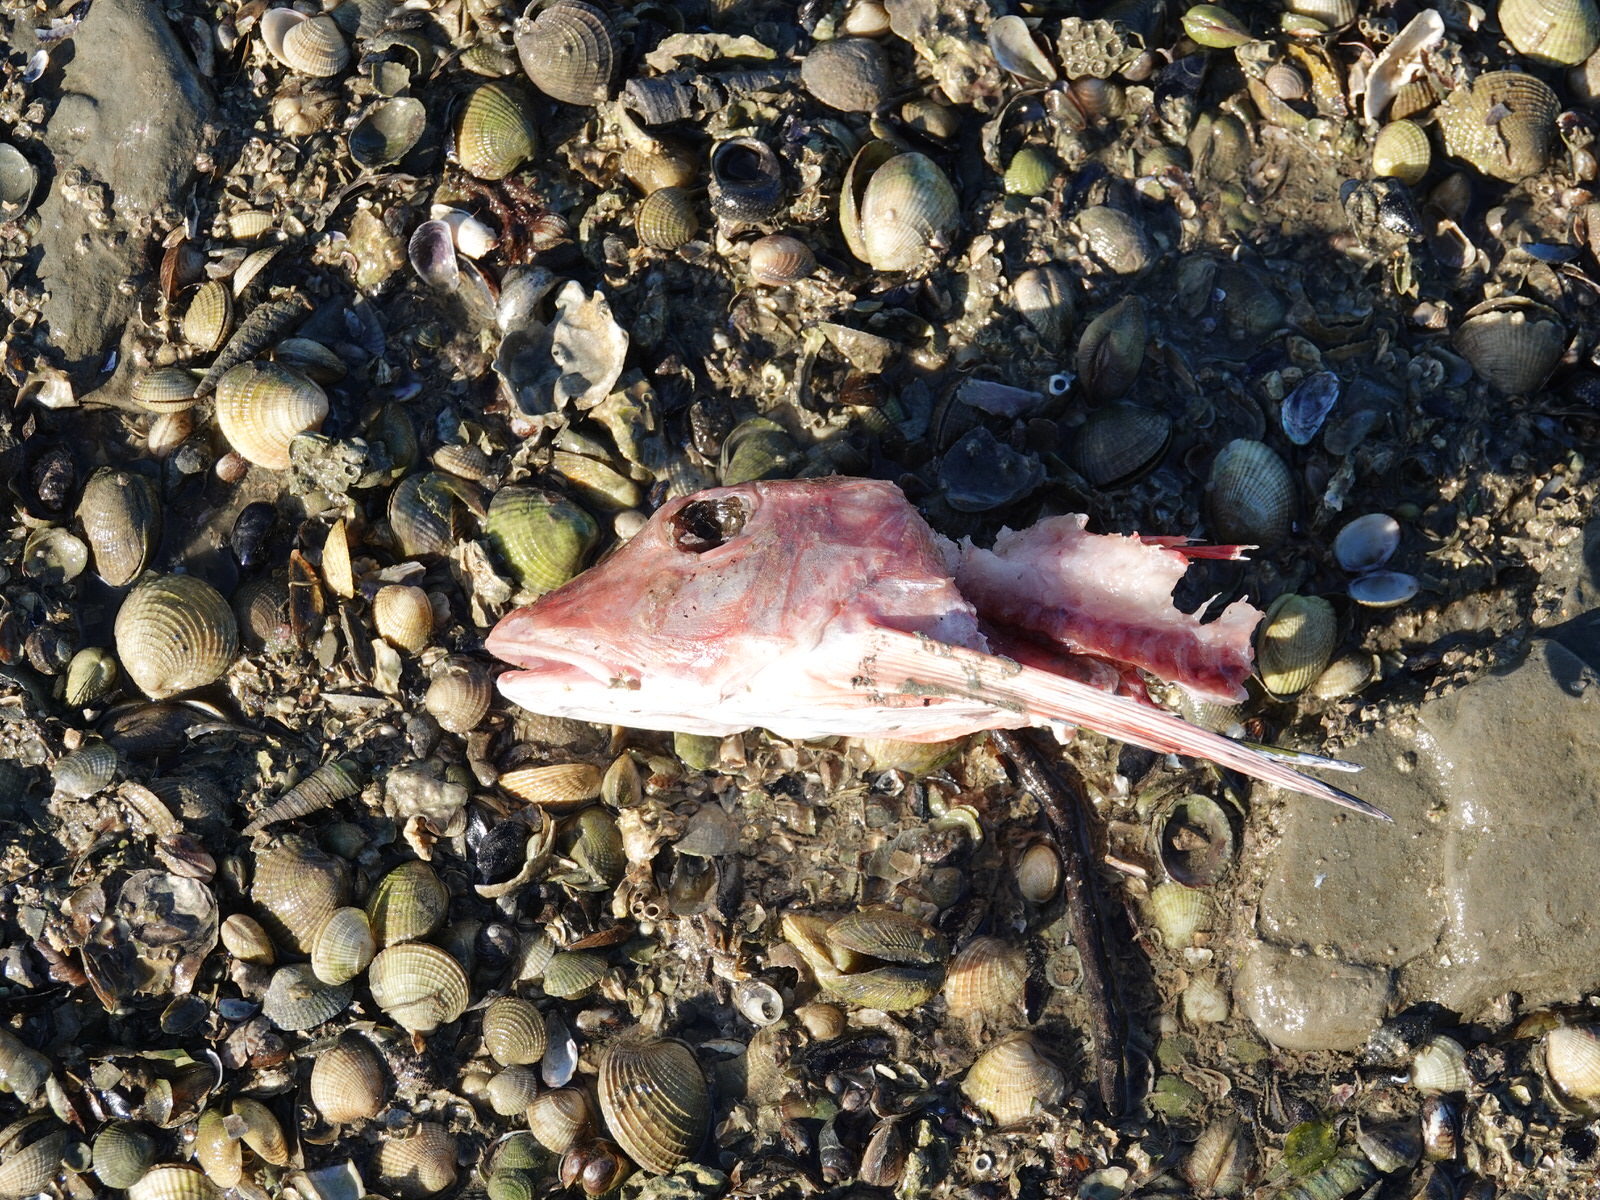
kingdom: Animalia
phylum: Chordata
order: Scorpaeniformes
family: Triglidae
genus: Chelidonichthys
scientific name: Chelidonichthys kumu
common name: Bluefin gurnard
